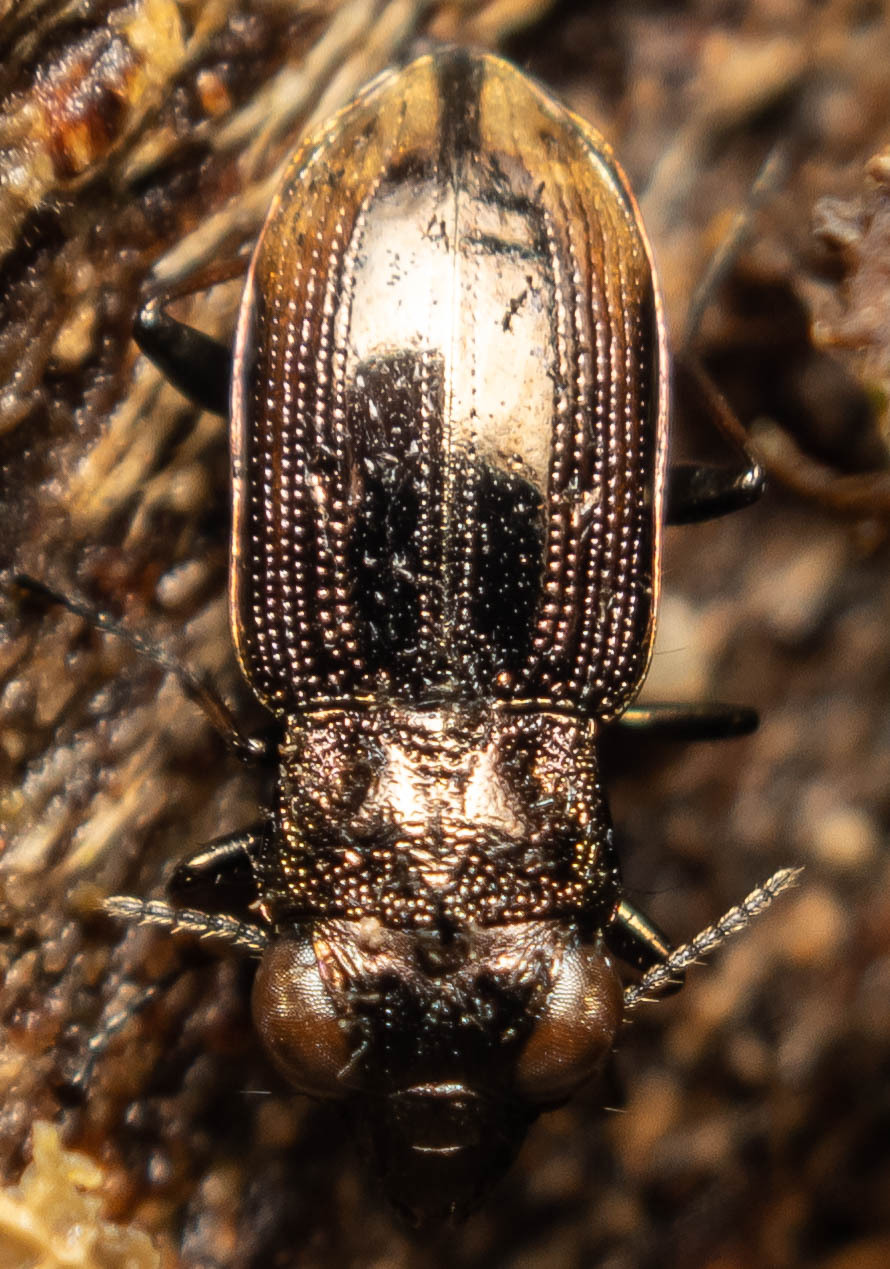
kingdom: Animalia
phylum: Arthropoda
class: Insecta
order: Coleoptera
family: Carabidae
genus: Notiophilus
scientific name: Notiophilus biguttatus
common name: Spotted gazelle beetle
